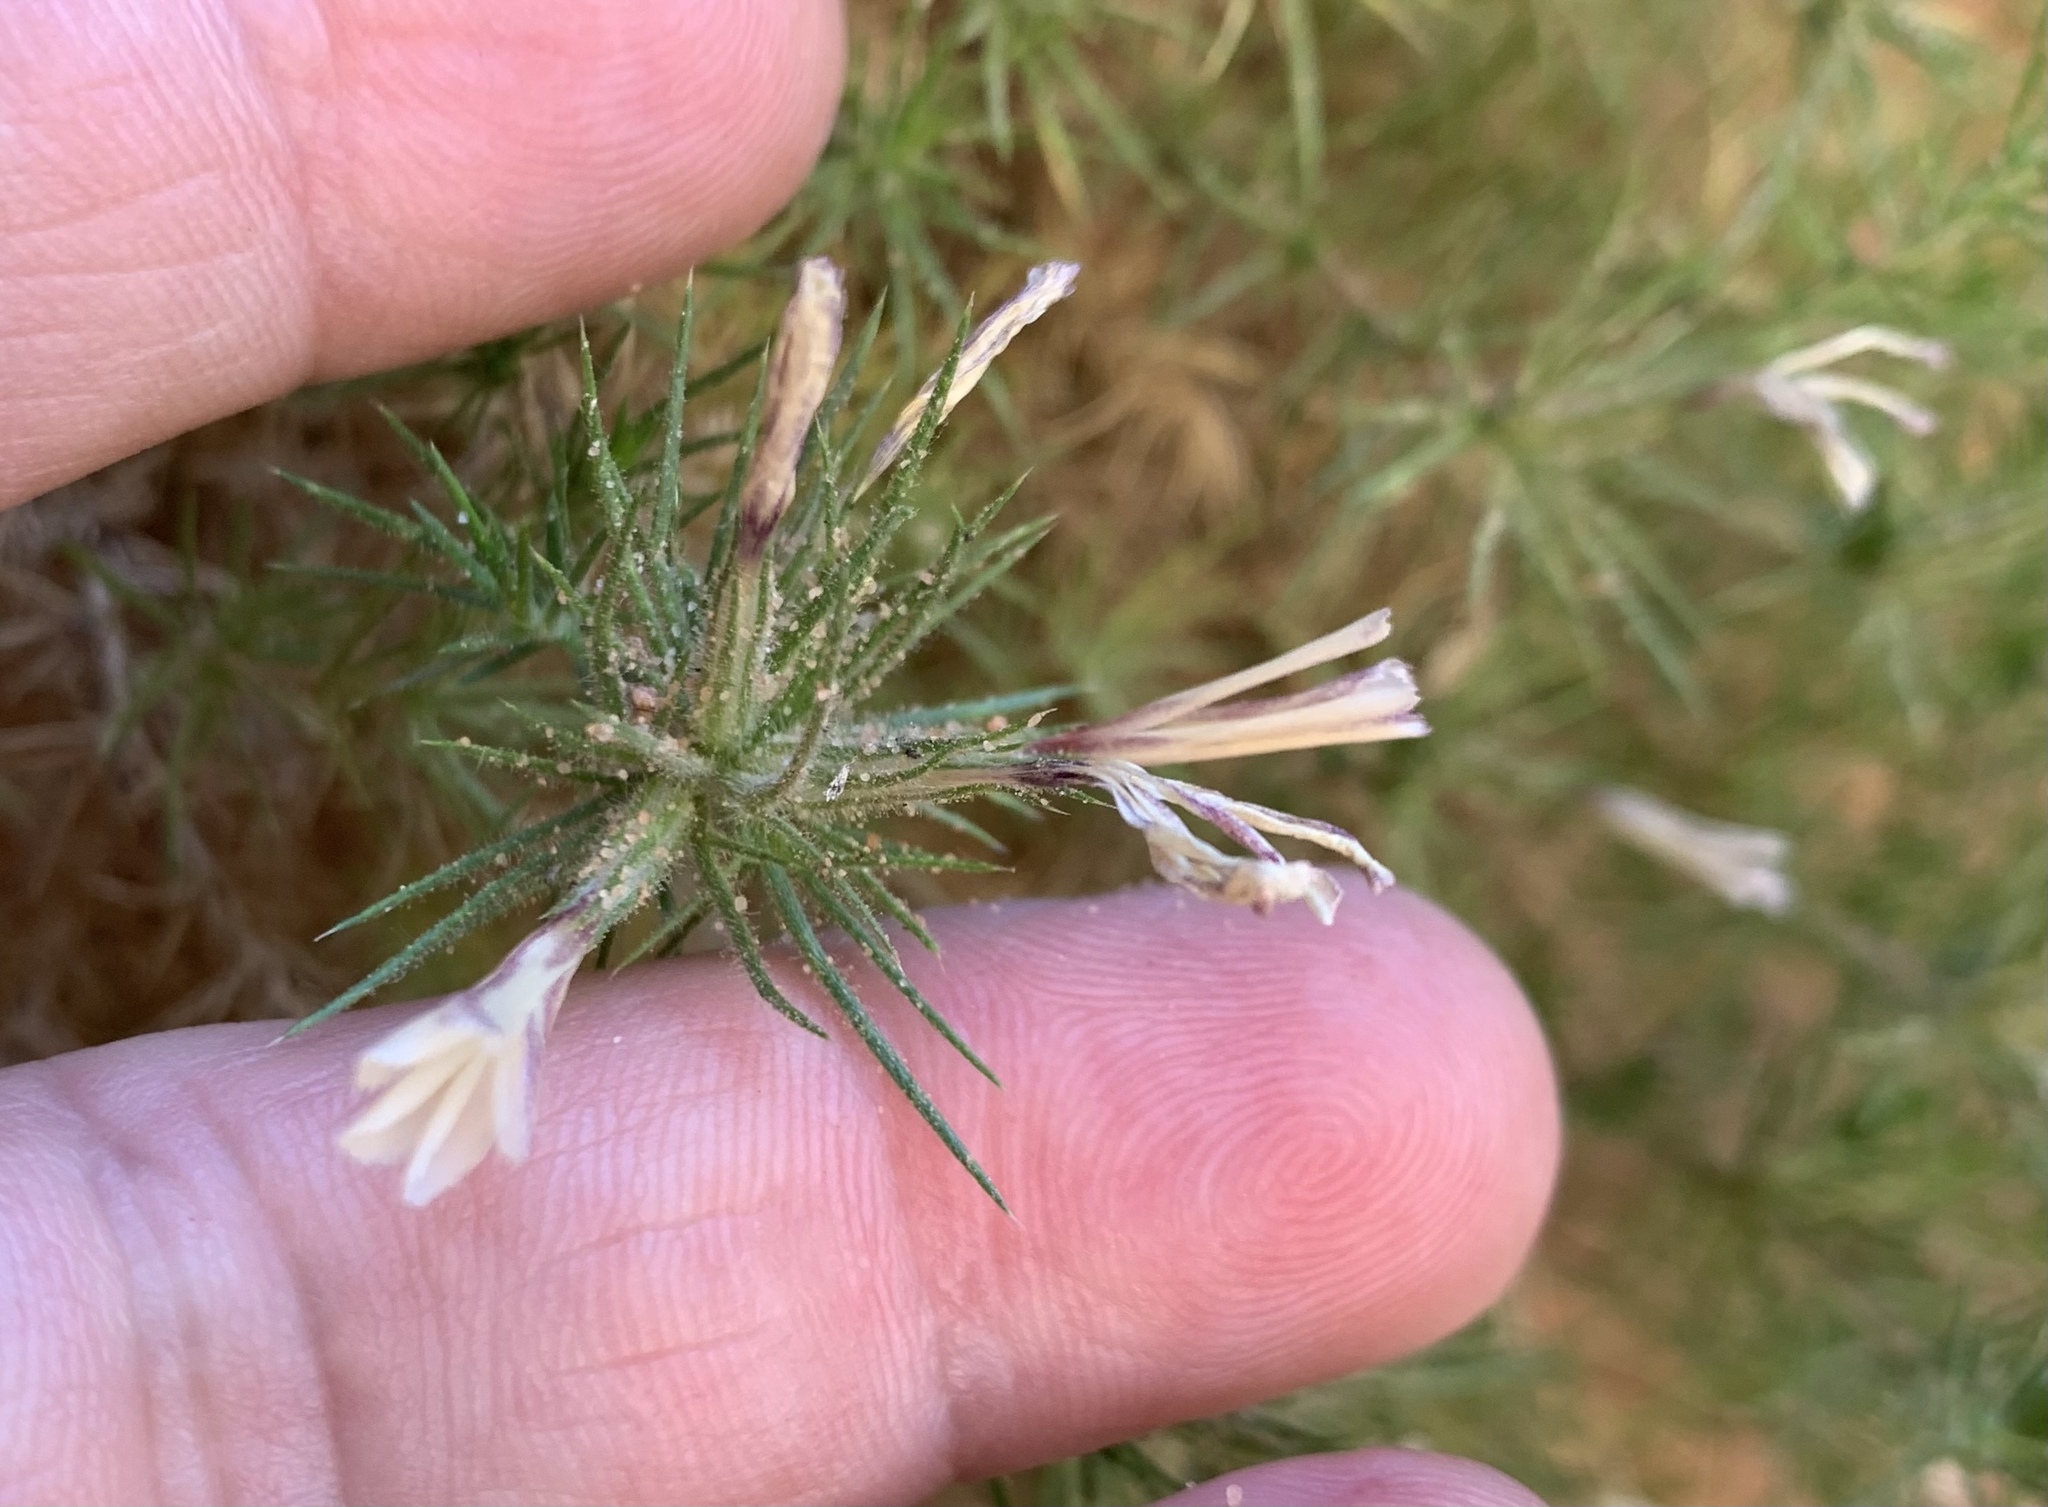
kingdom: Plantae
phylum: Tracheophyta
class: Magnoliopsida
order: Ericales
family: Polemoniaceae
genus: Linanthus
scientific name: Linanthus pungens
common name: Granite prickly phlox
